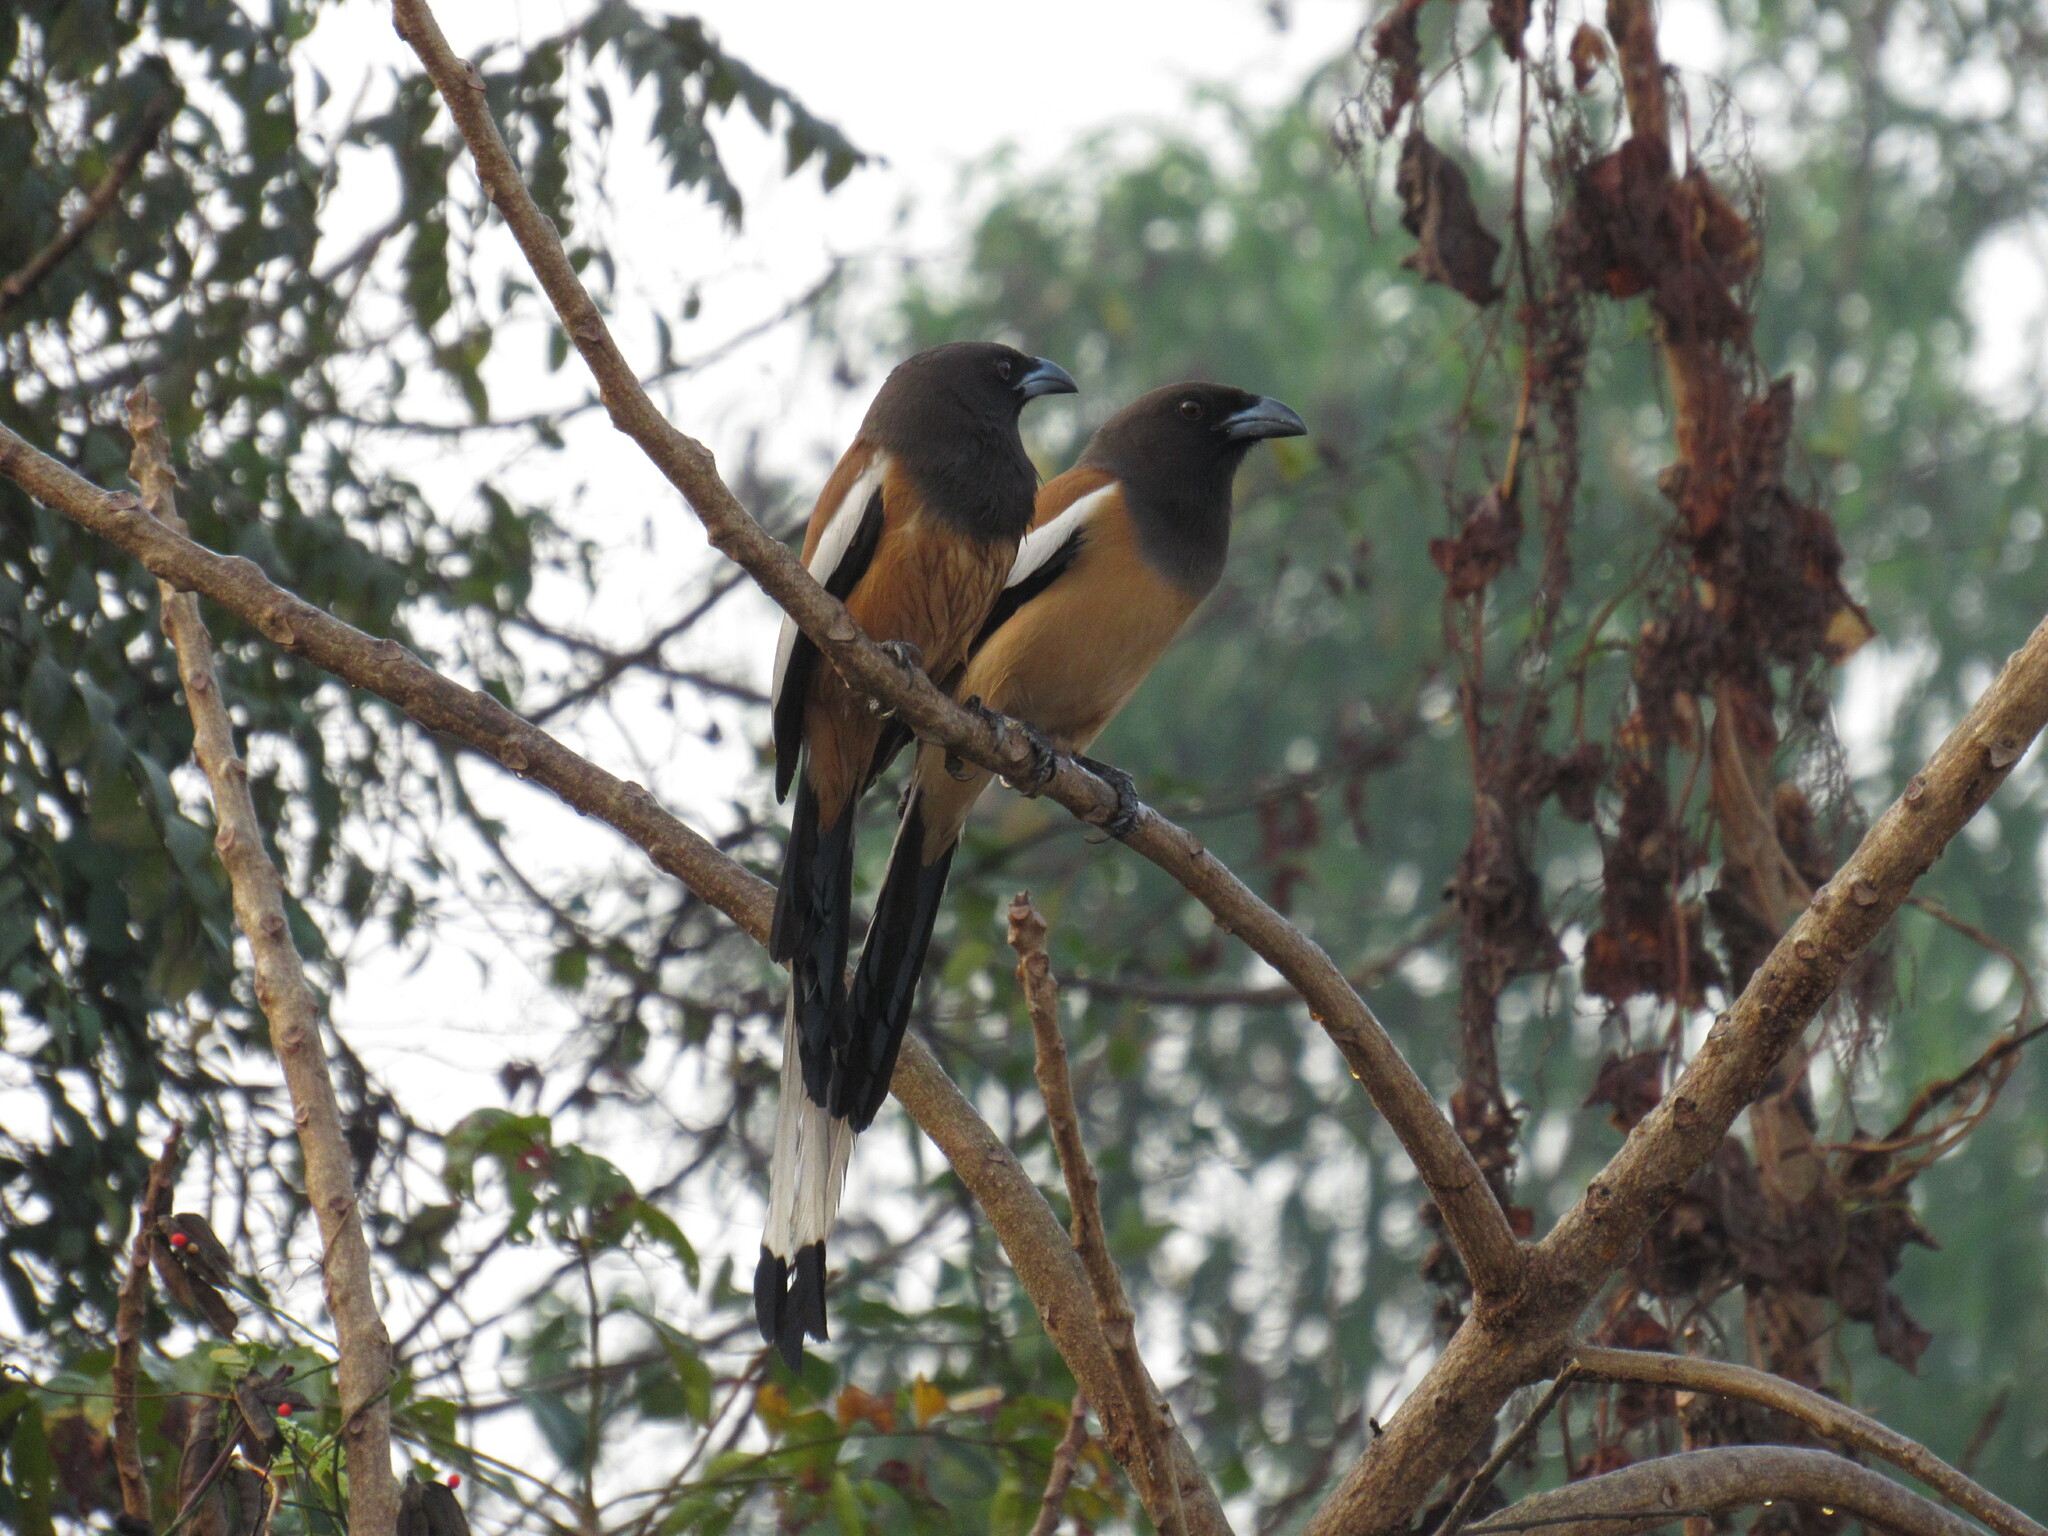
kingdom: Animalia
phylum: Chordata
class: Aves
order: Passeriformes
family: Corvidae
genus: Dendrocitta
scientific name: Dendrocitta vagabunda
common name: Rufous treepie
